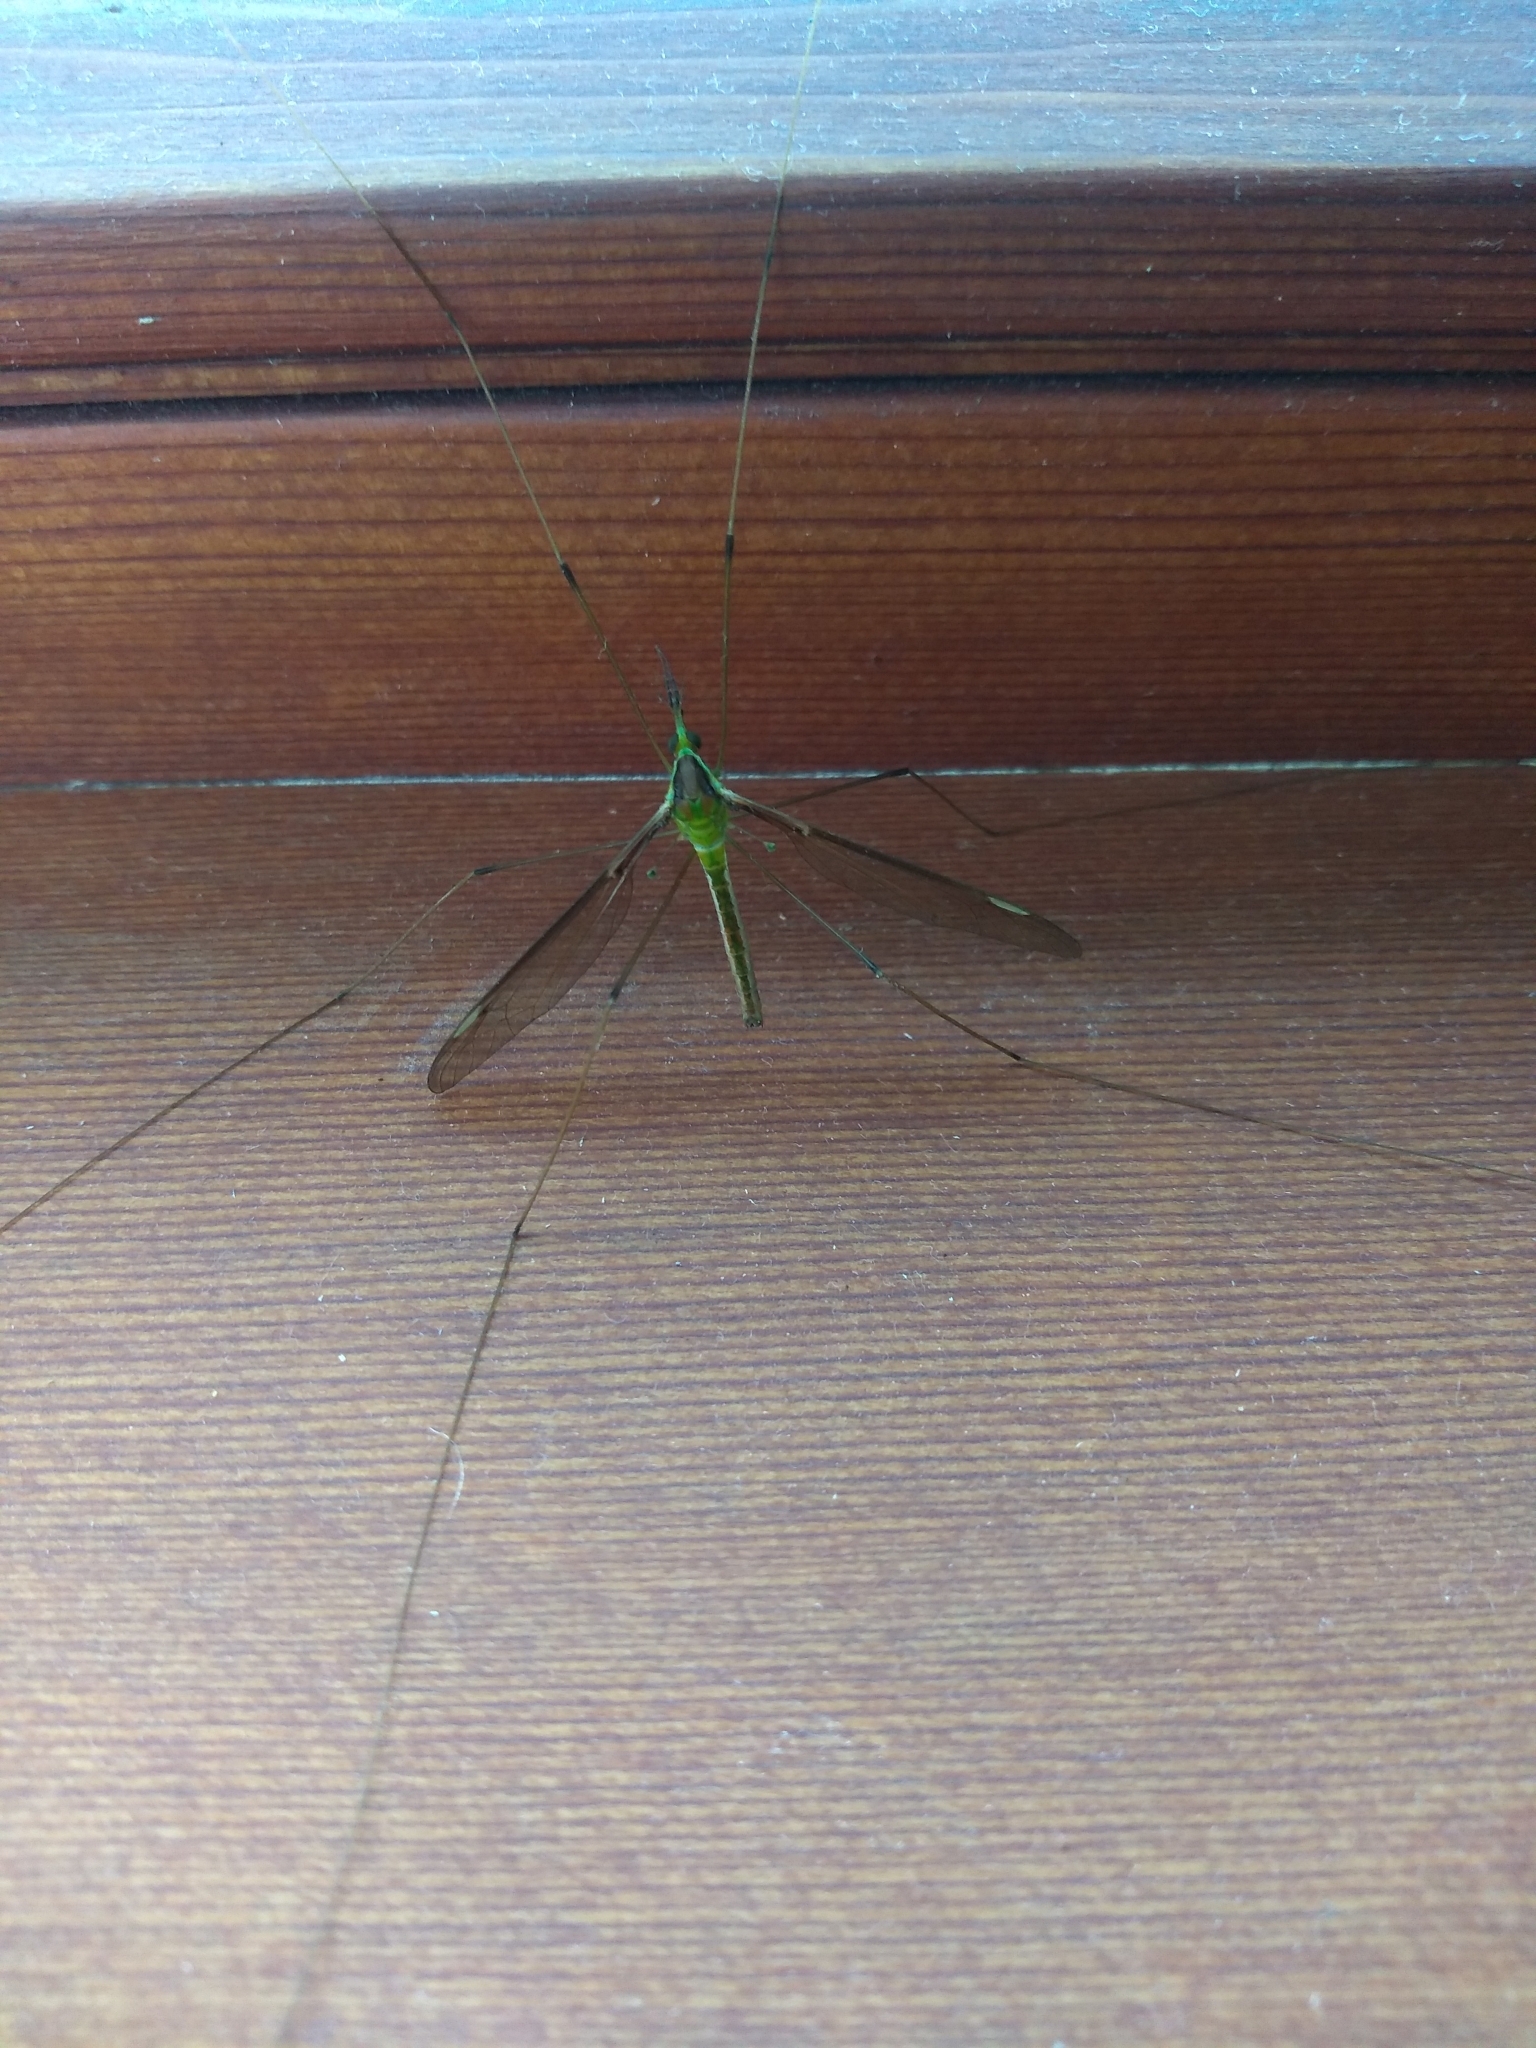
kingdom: Animalia
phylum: Arthropoda
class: Insecta
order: Diptera
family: Tipulidae
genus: Leptotarsus
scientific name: Leptotarsus albistigma
